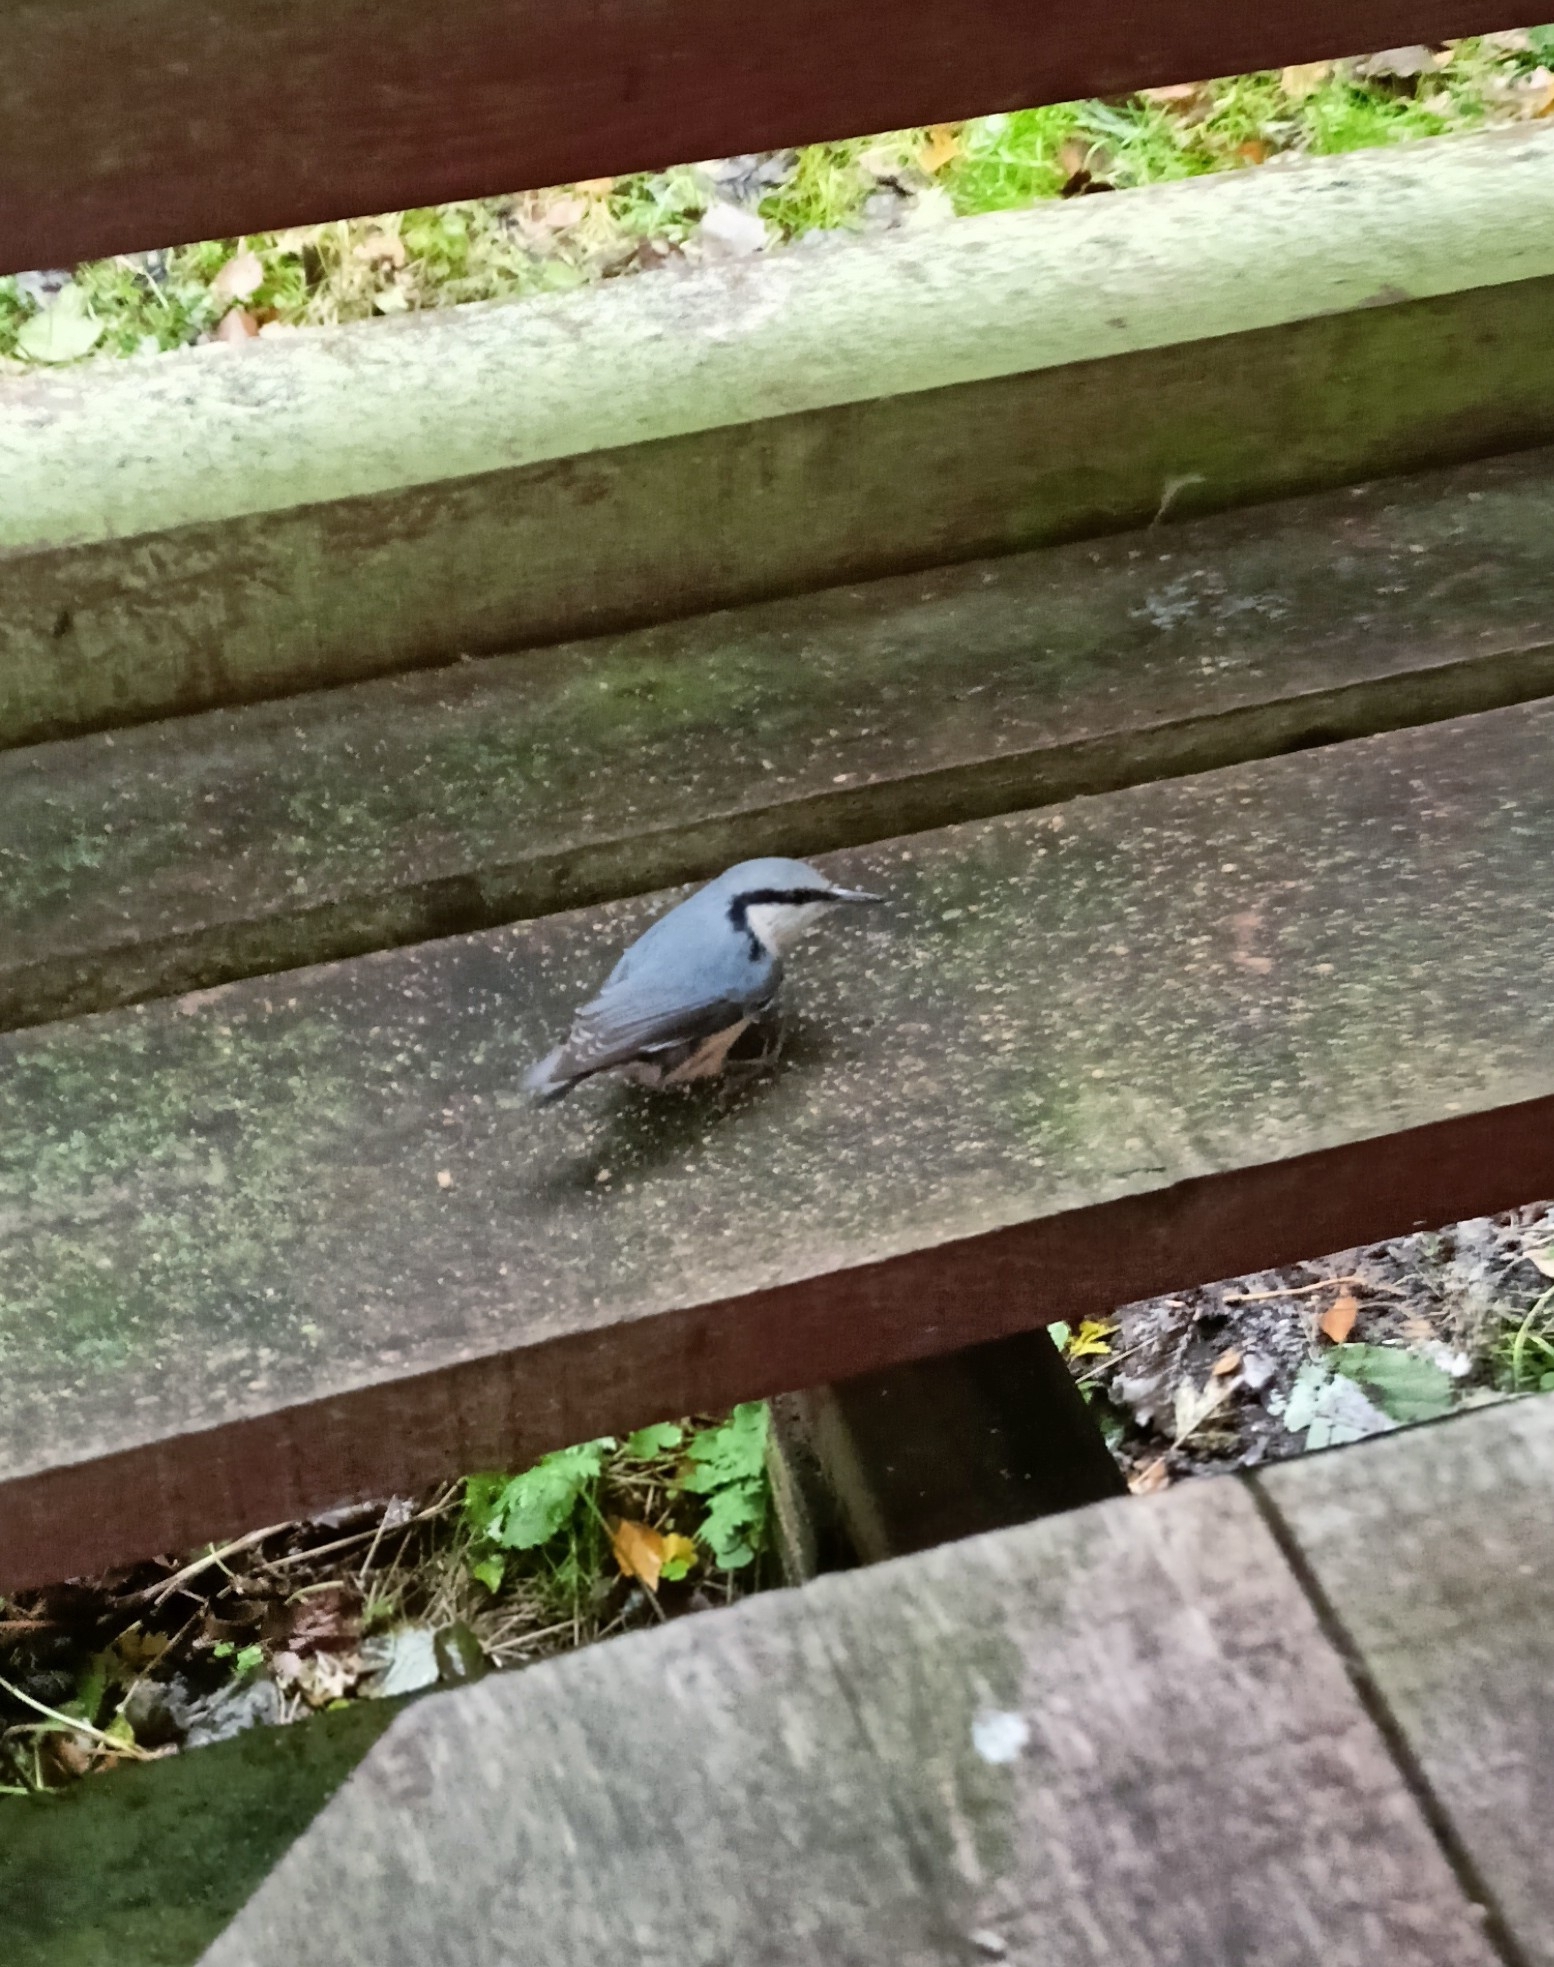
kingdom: Animalia
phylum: Chordata
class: Aves
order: Passeriformes
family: Sittidae
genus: Sitta
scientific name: Sitta europaea
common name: Eurasian nuthatch
